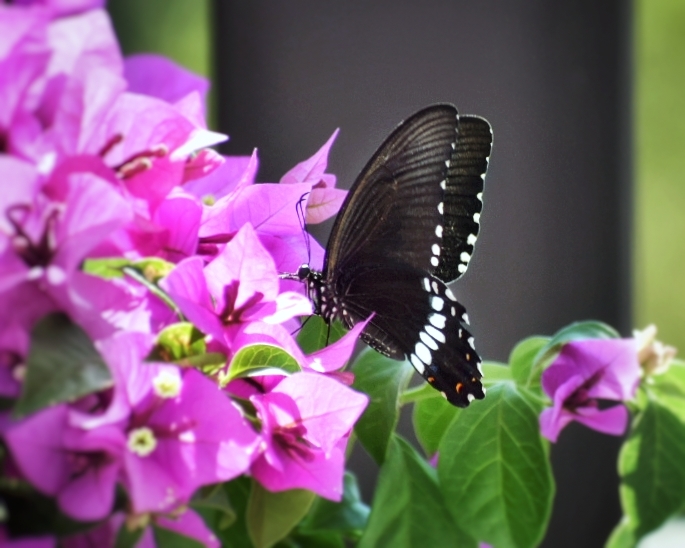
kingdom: Animalia
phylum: Arthropoda
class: Insecta
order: Lepidoptera
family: Papilionidae
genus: Papilio
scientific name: Papilio polytes
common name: Common mormon
